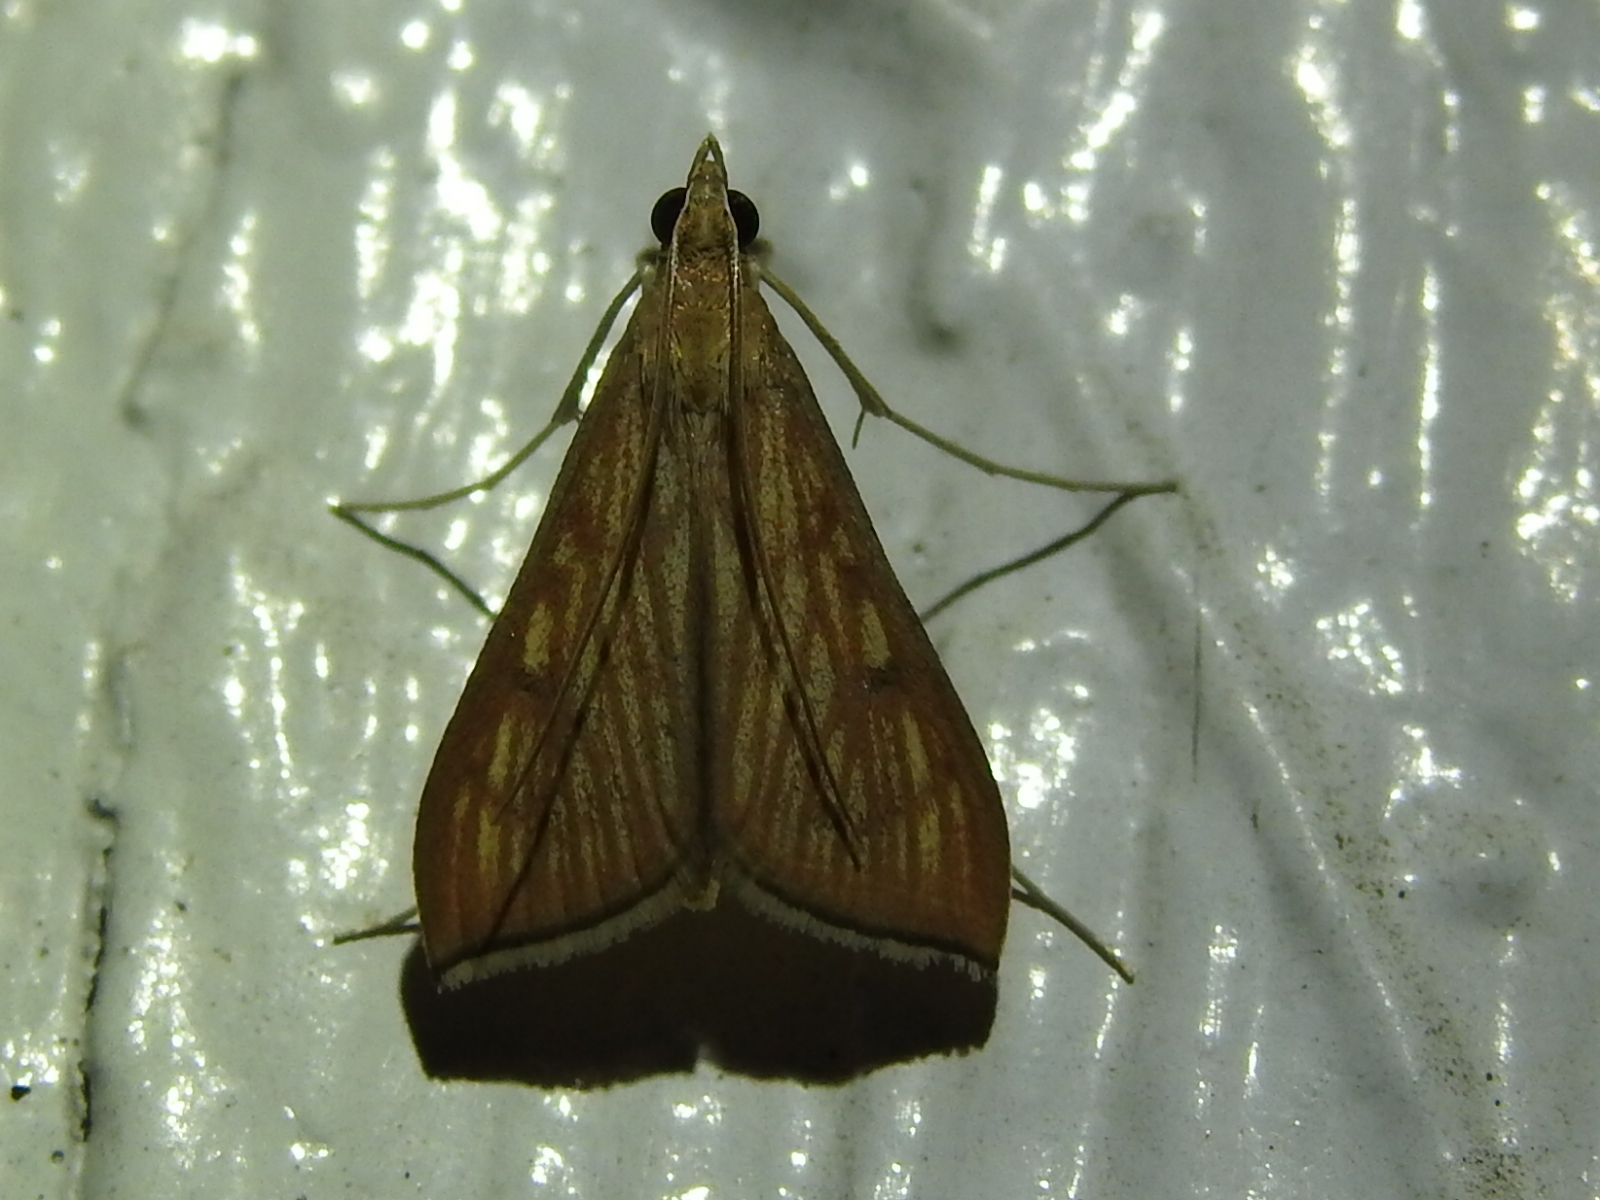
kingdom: Animalia
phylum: Arthropoda
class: Insecta
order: Lepidoptera
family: Crambidae
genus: Antigastra
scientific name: Antigastra catalaunalis
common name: Spanish dot
